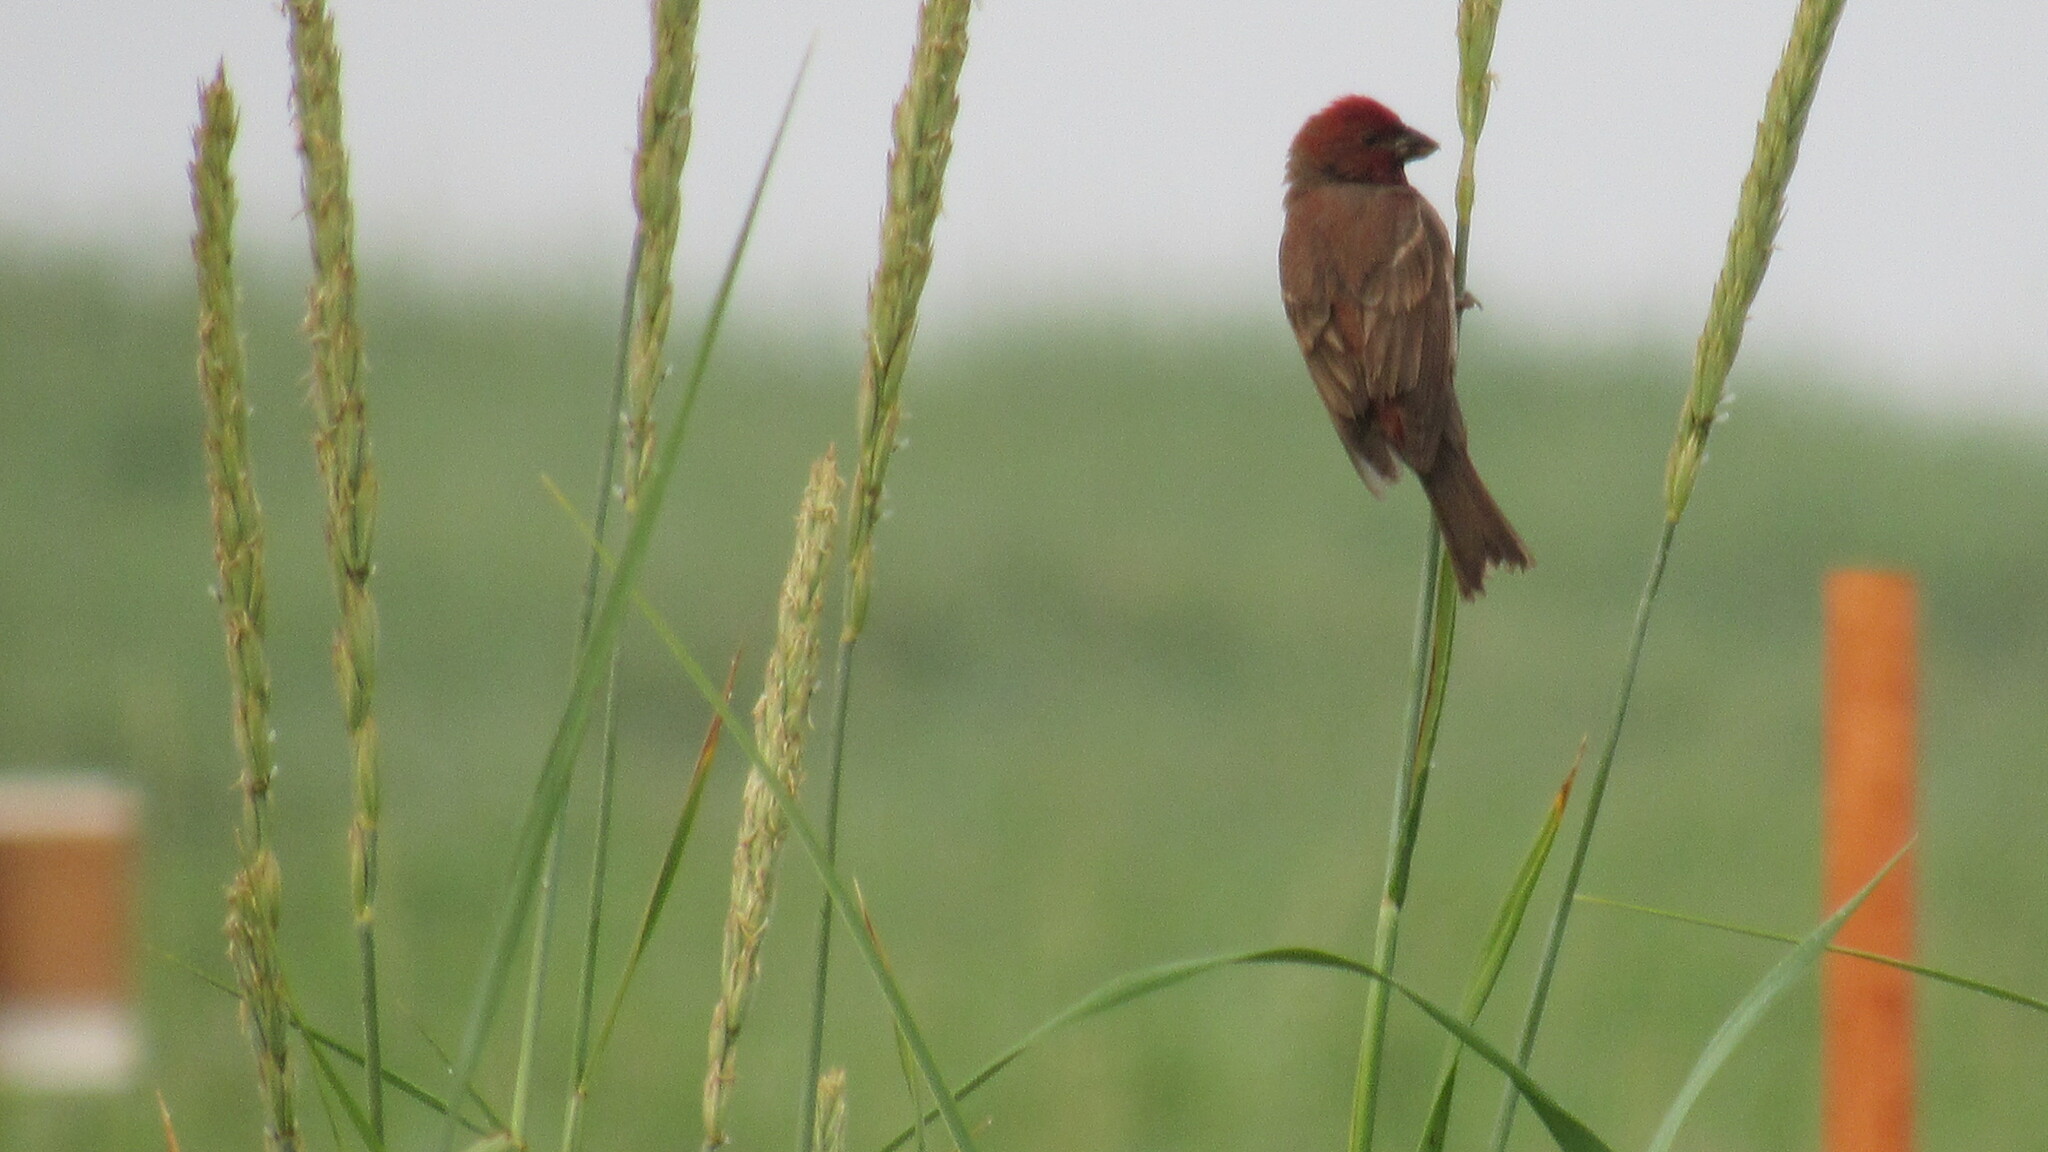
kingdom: Animalia
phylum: Chordata
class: Aves
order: Passeriformes
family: Fringillidae
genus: Carpodacus
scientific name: Carpodacus erythrinus
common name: Common rosefinch
